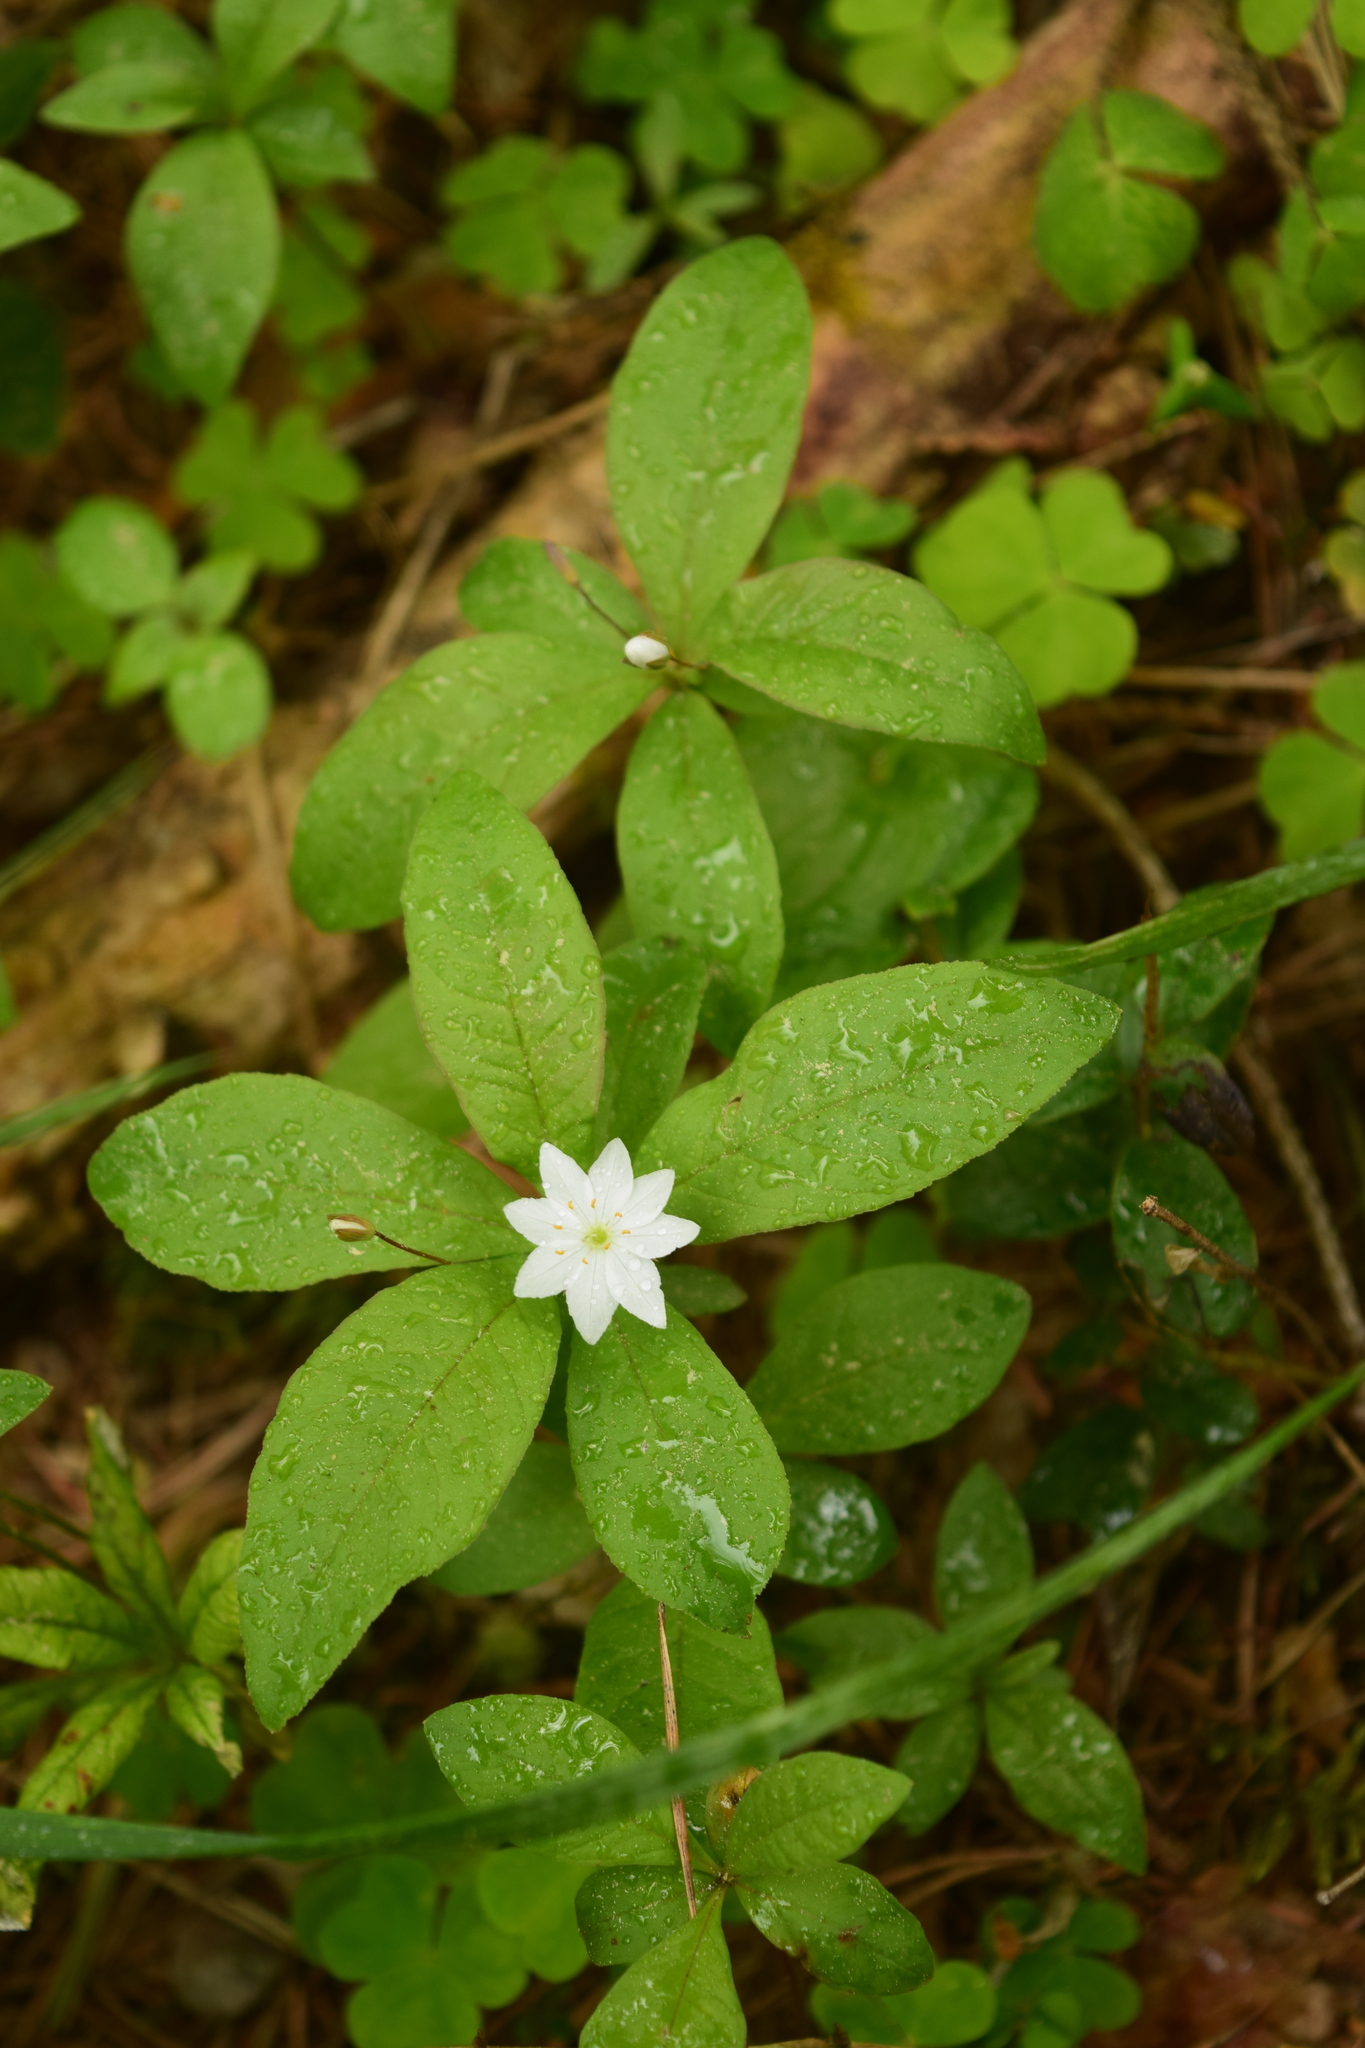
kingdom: Plantae
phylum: Tracheophyta
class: Magnoliopsida
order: Ericales
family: Primulaceae
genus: Lysimachia
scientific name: Lysimachia europaea
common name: Arctic starflower
